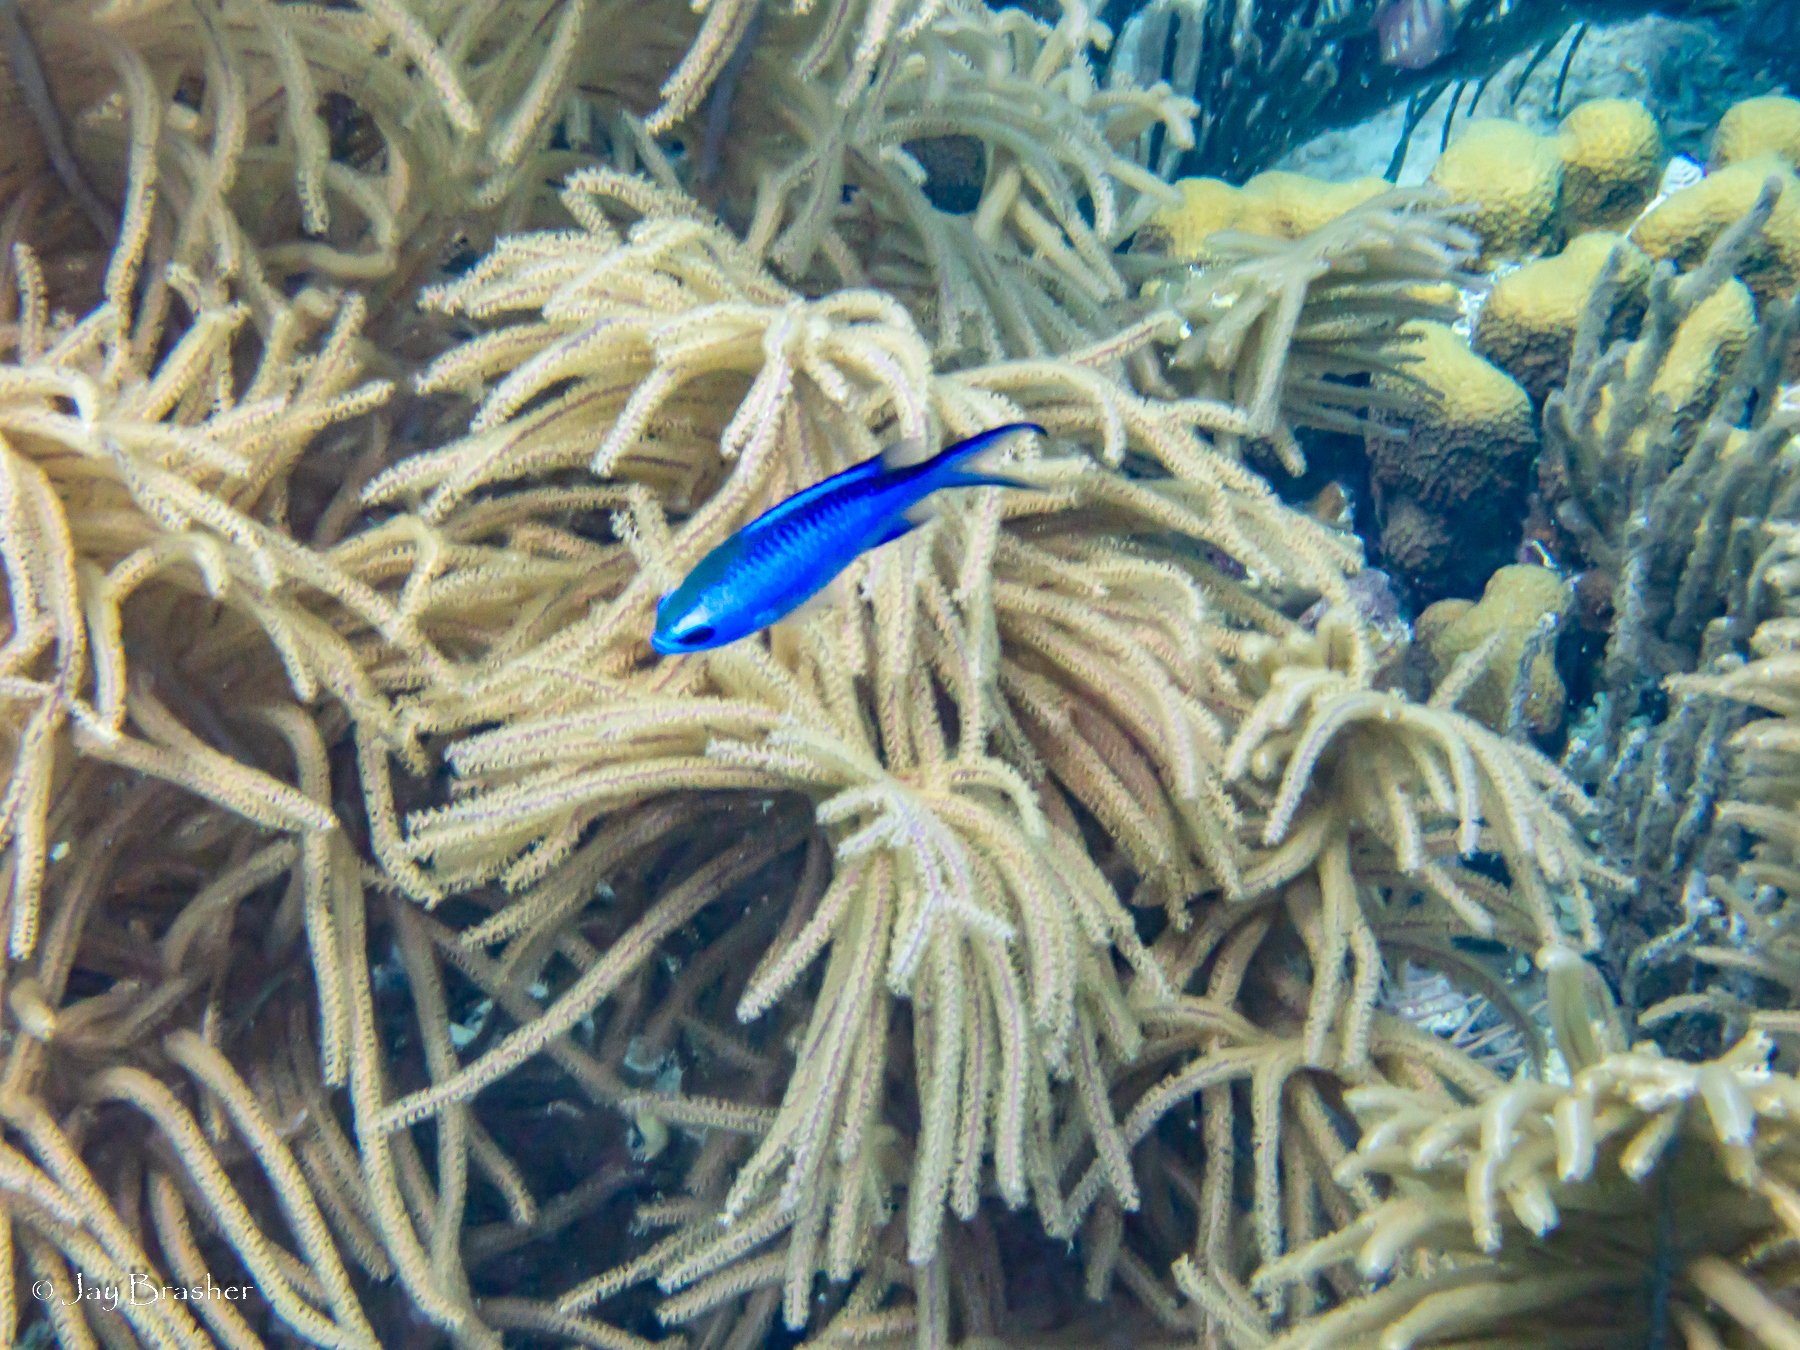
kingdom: Animalia
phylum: Chordata
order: Perciformes
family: Pomacentridae
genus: Chromis
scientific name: Chromis cyanea
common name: Blue chromis
